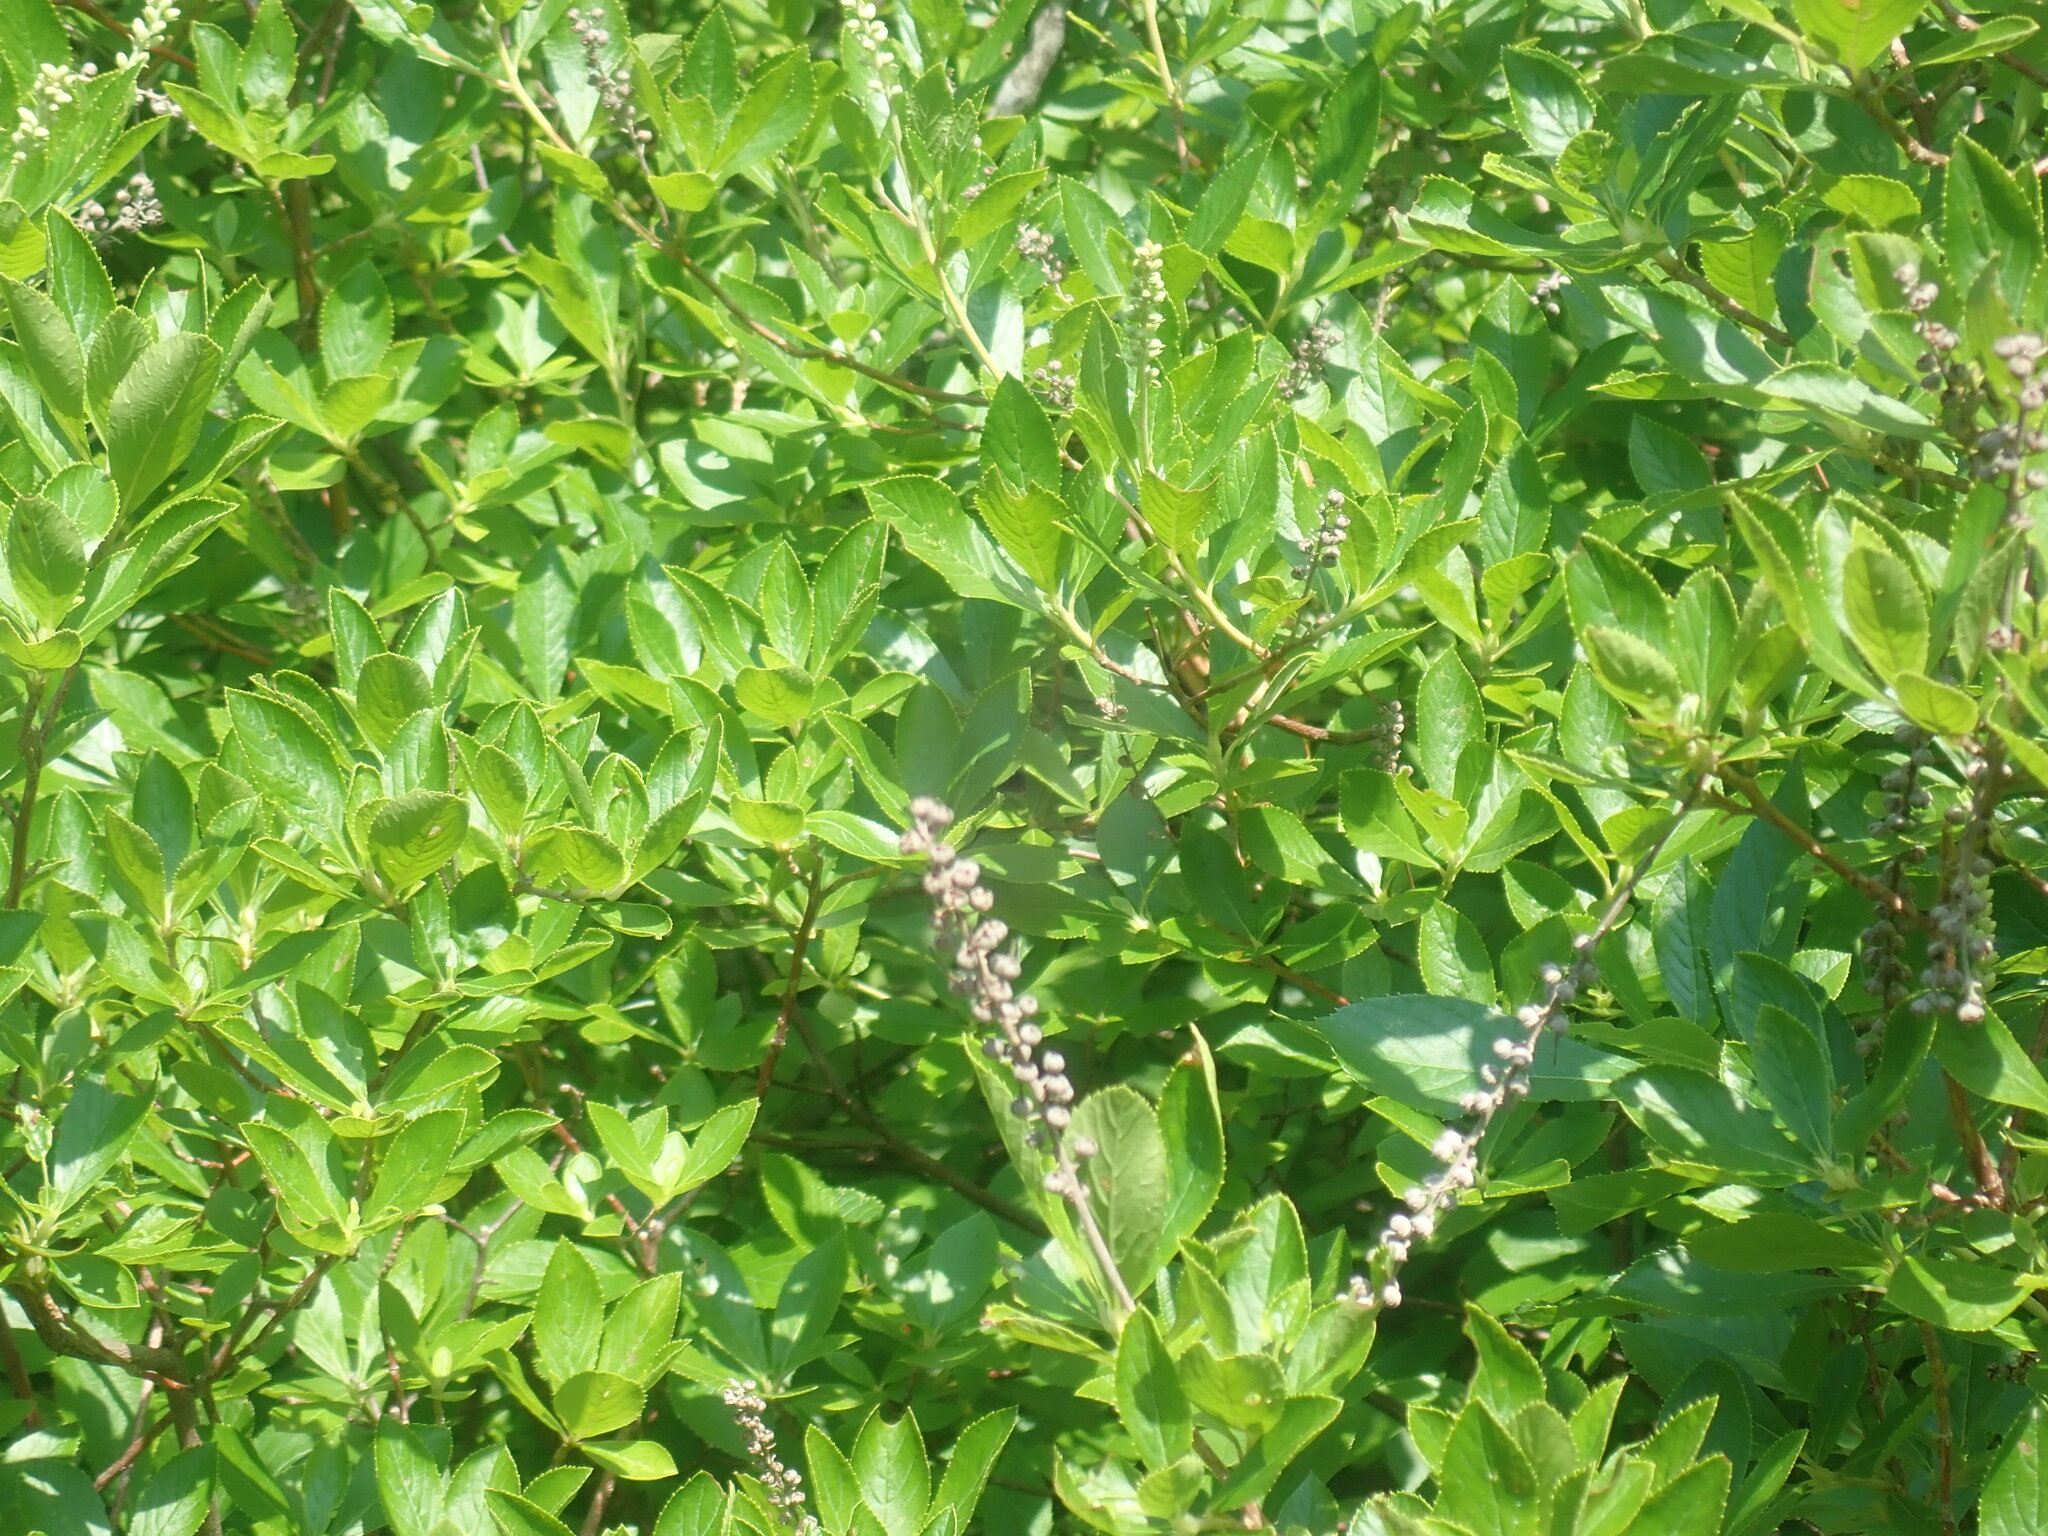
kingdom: Plantae
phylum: Tracheophyta
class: Magnoliopsida
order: Ericales
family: Clethraceae
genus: Clethra
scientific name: Clethra alnifolia
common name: Sweet pepperbush
